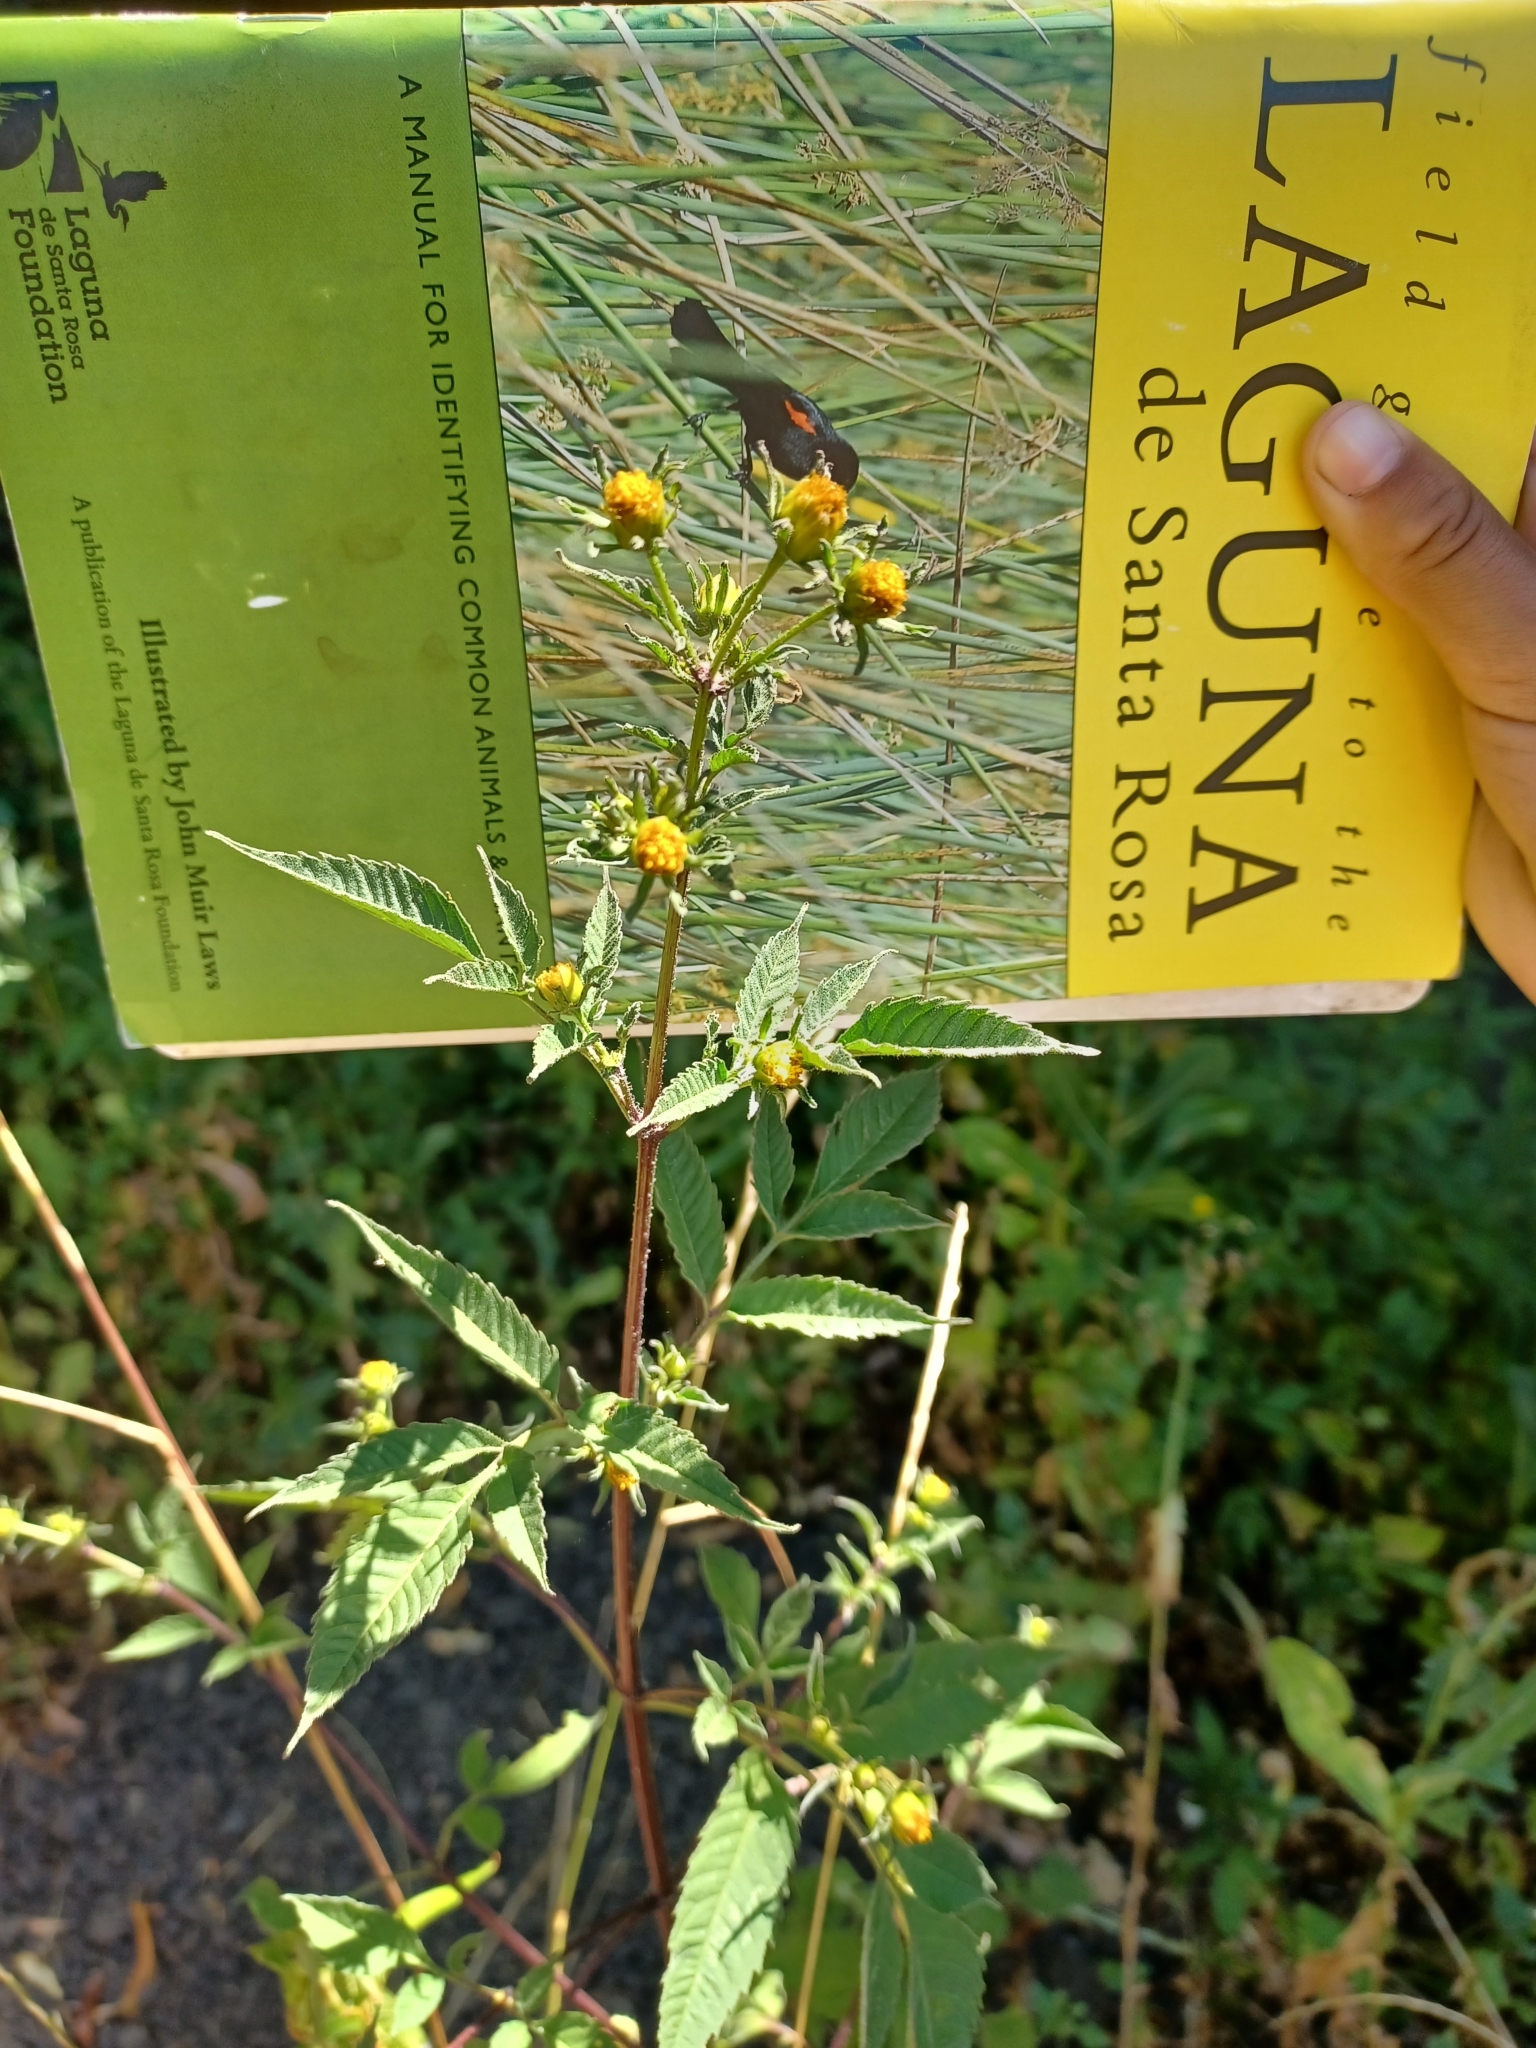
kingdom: Plantae
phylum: Tracheophyta
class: Magnoliopsida
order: Asterales
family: Asteraceae
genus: Bidens
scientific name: Bidens frondosa
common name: Beggarticks
